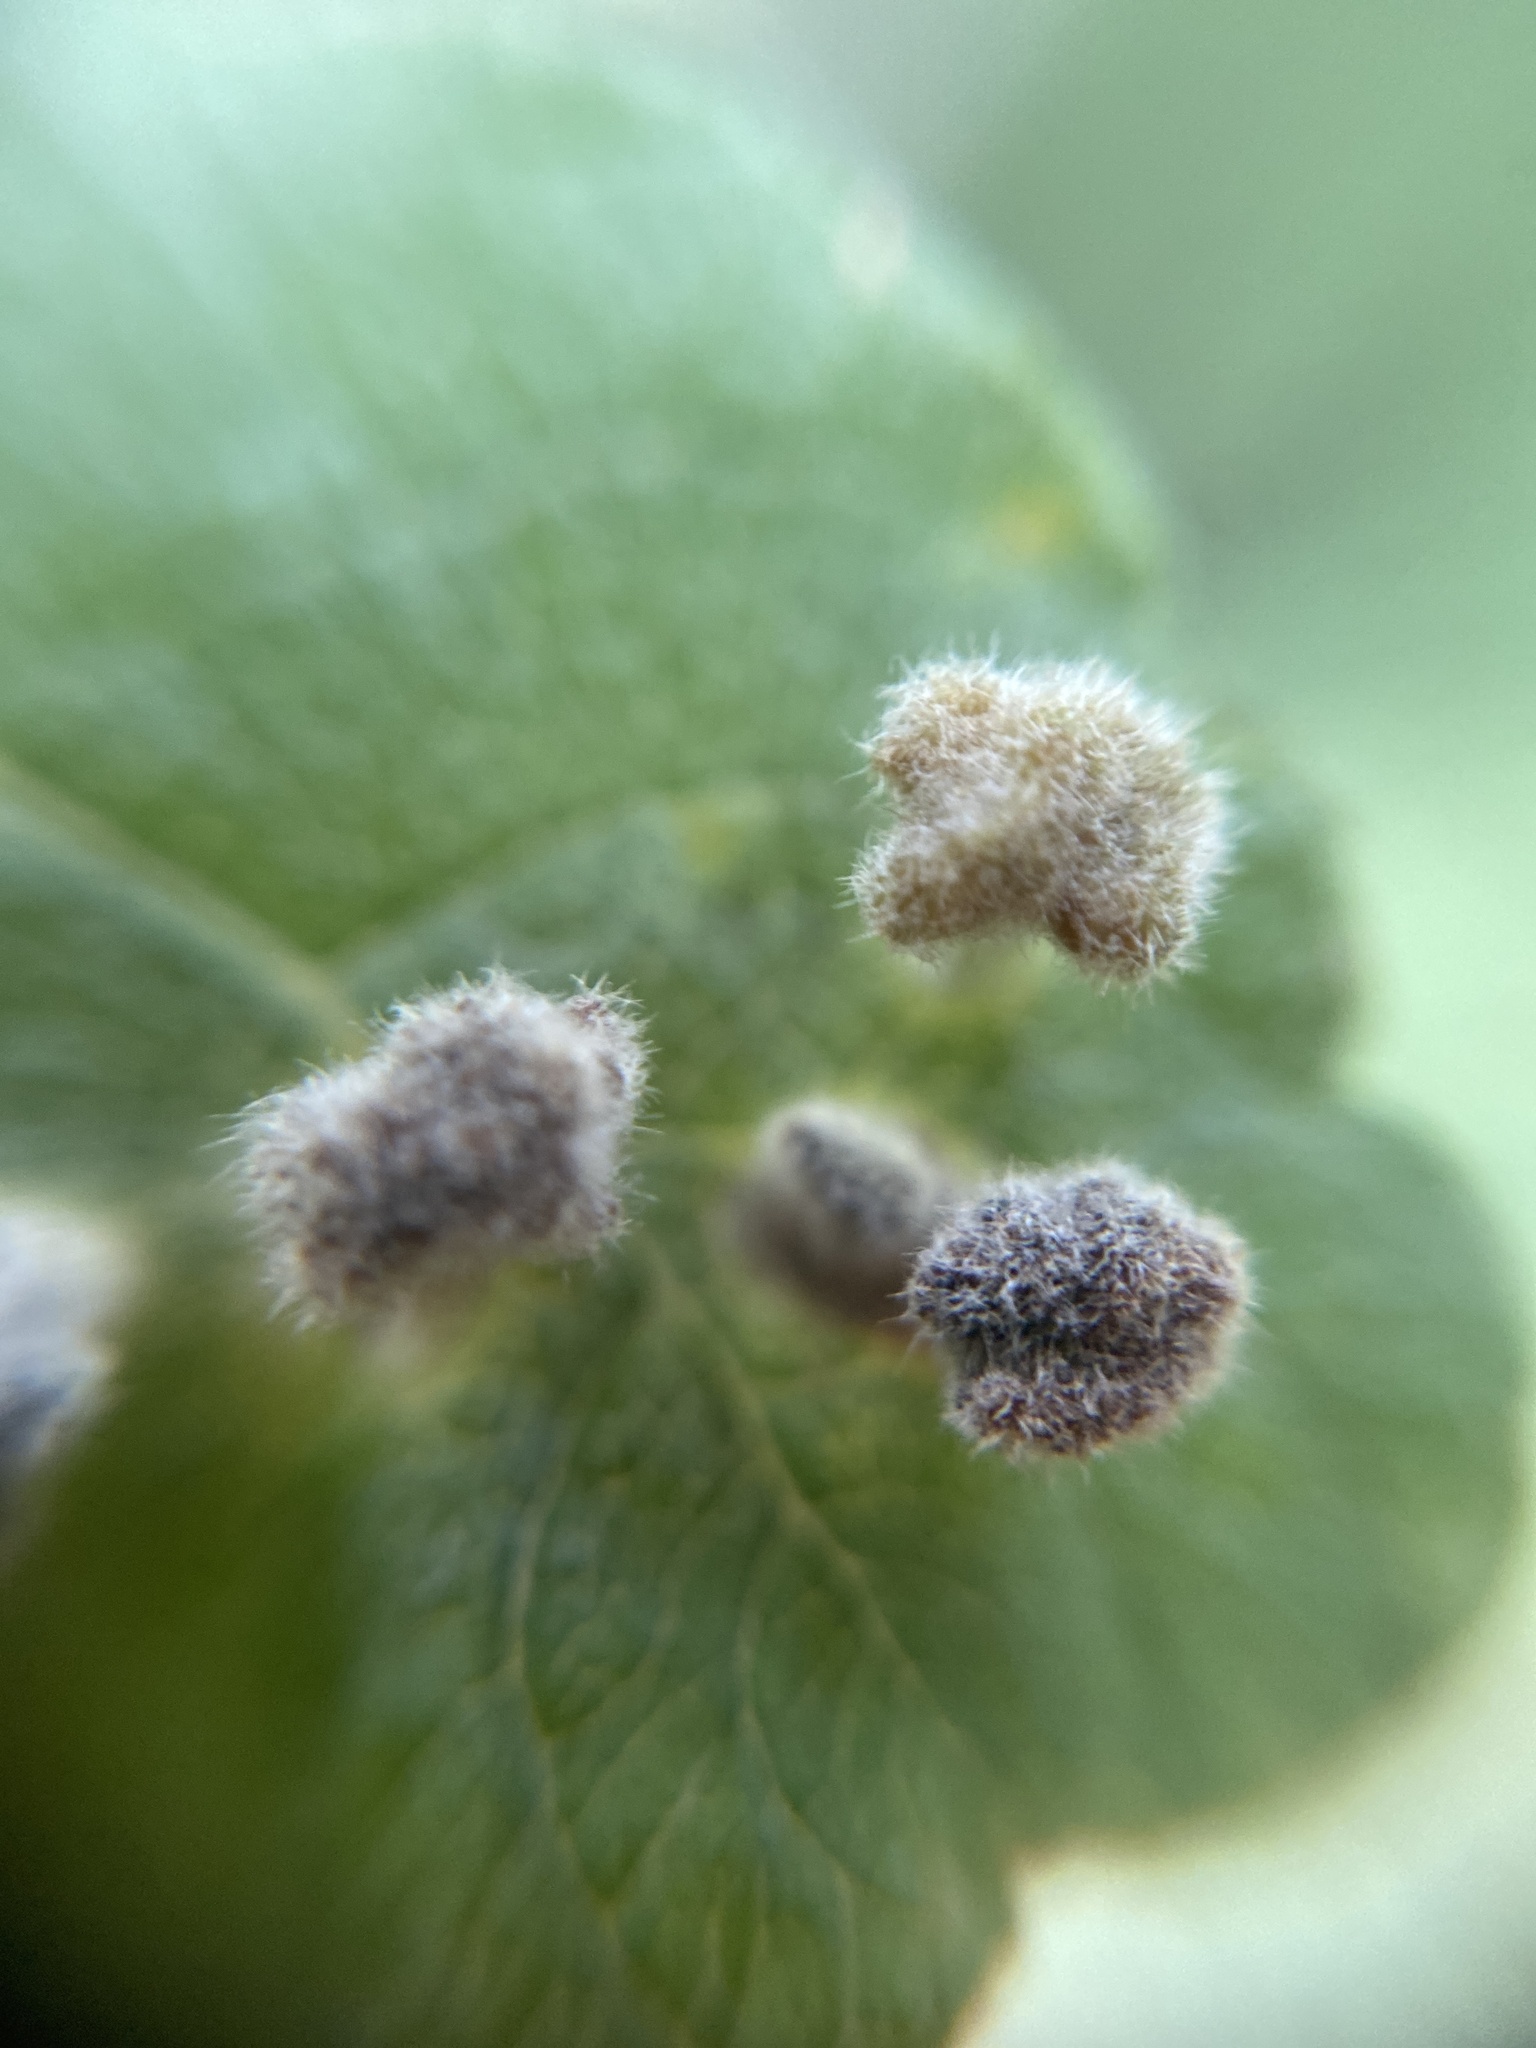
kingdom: Animalia
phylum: Arthropoda
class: Arachnida
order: Trombidiformes
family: Eriophyidae
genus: Aceria
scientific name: Aceria iteina
